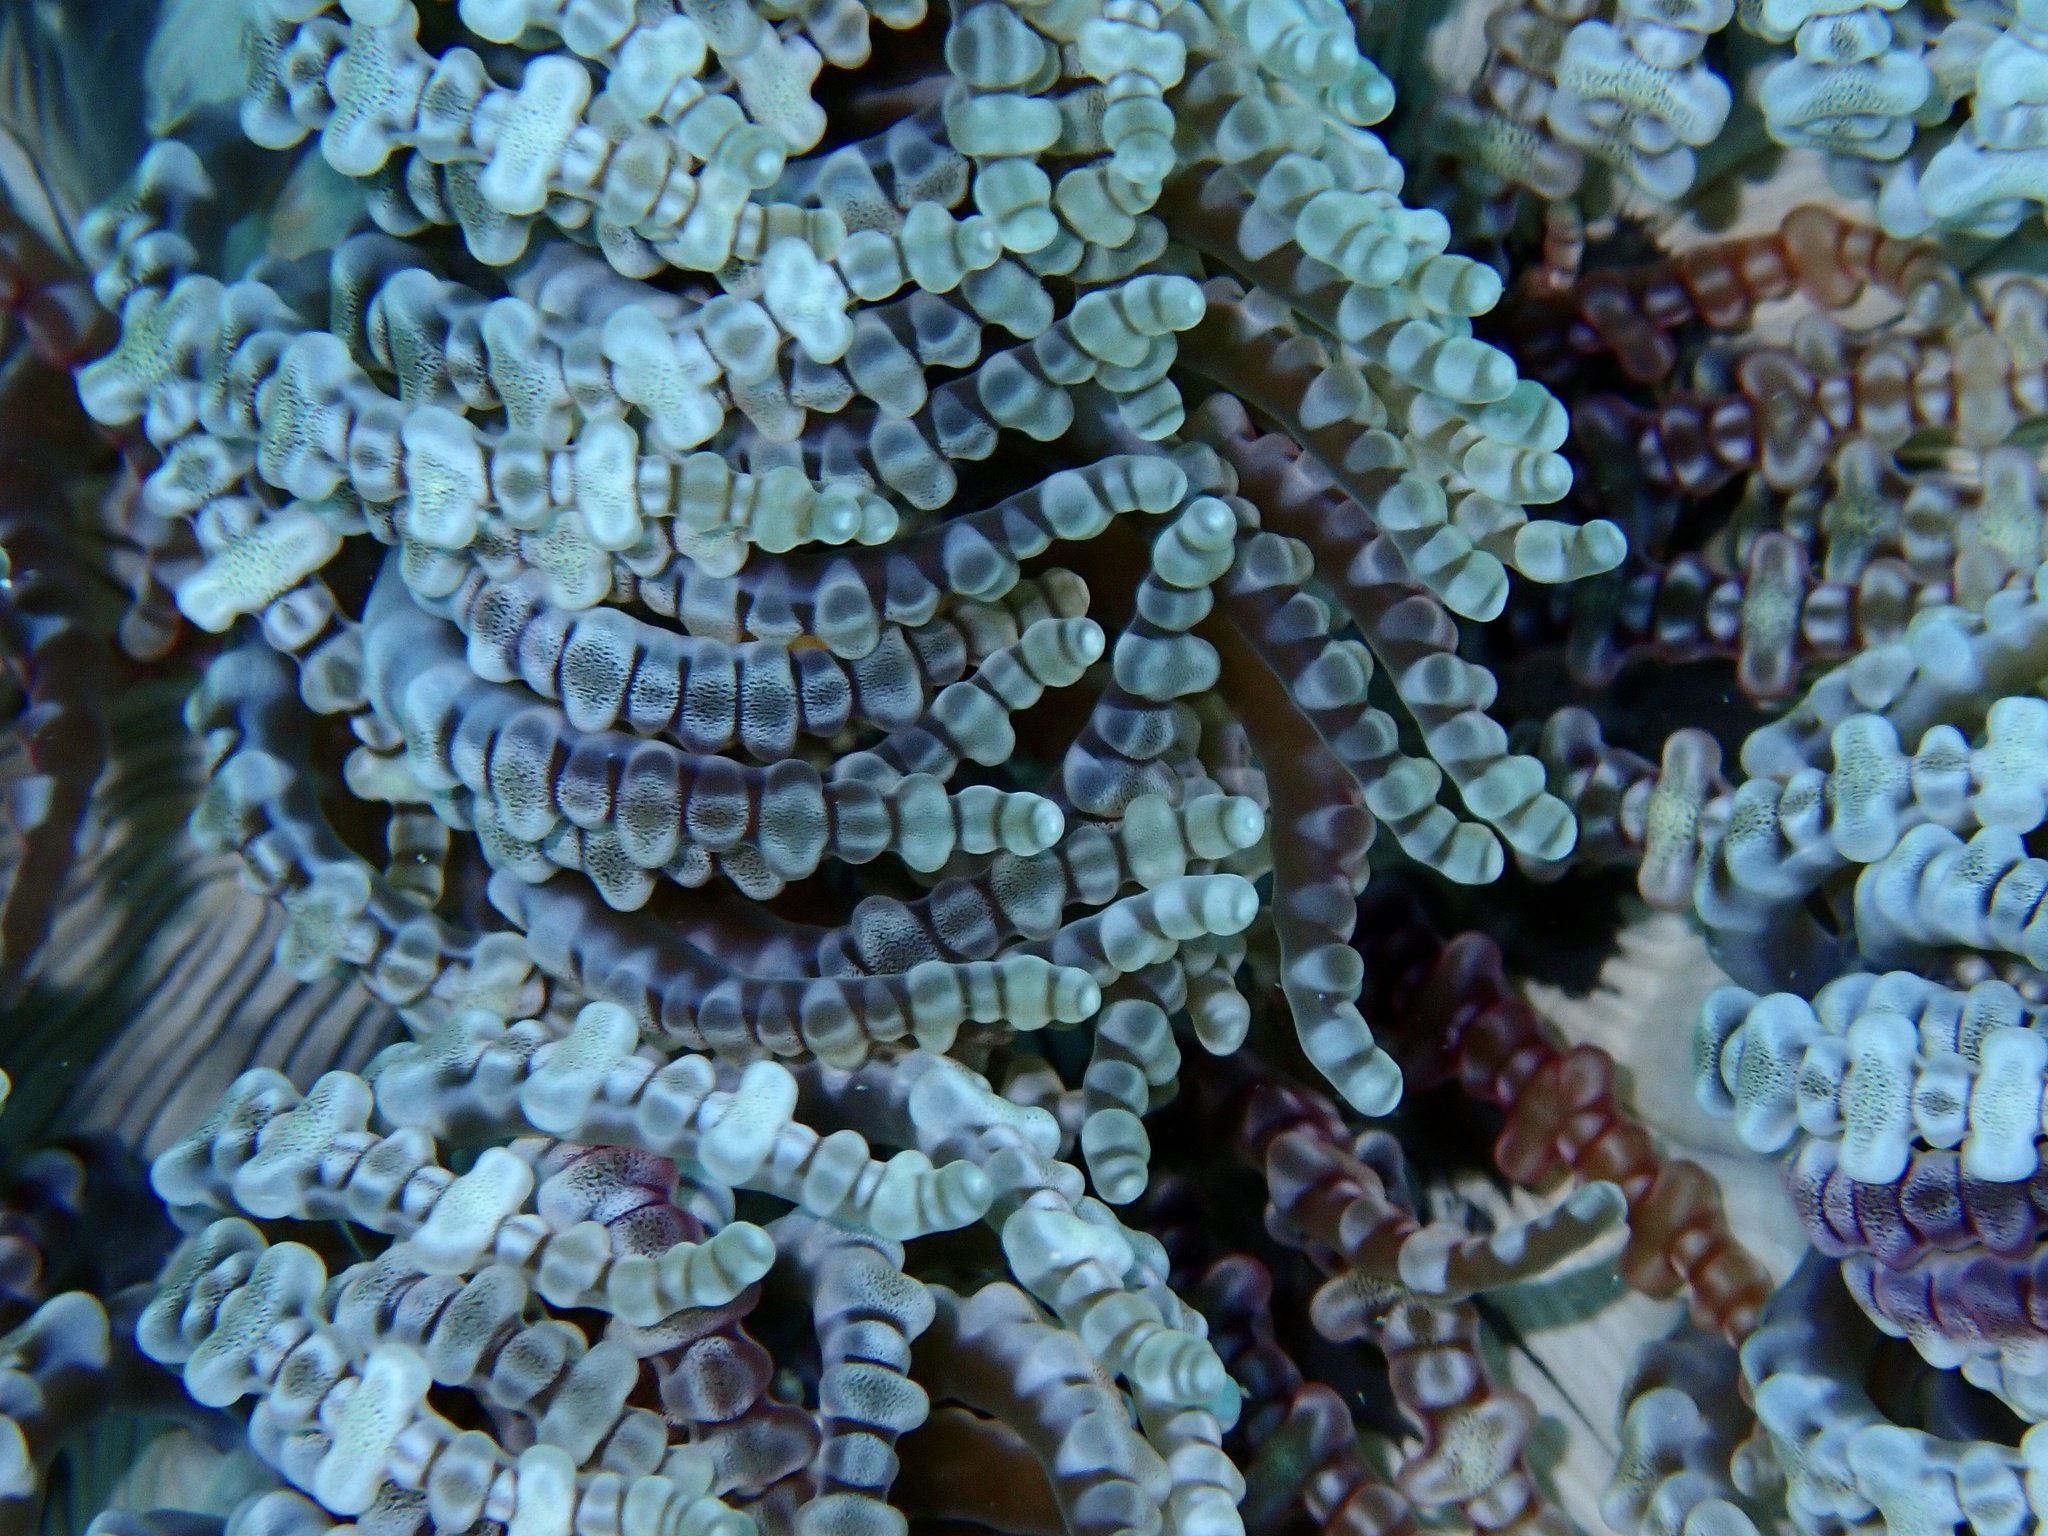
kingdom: Animalia
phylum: Cnidaria
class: Anthozoa
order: Actiniaria
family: Heteractidae
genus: Heteractis
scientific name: Heteractis aurora
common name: Beaded sea anemone
